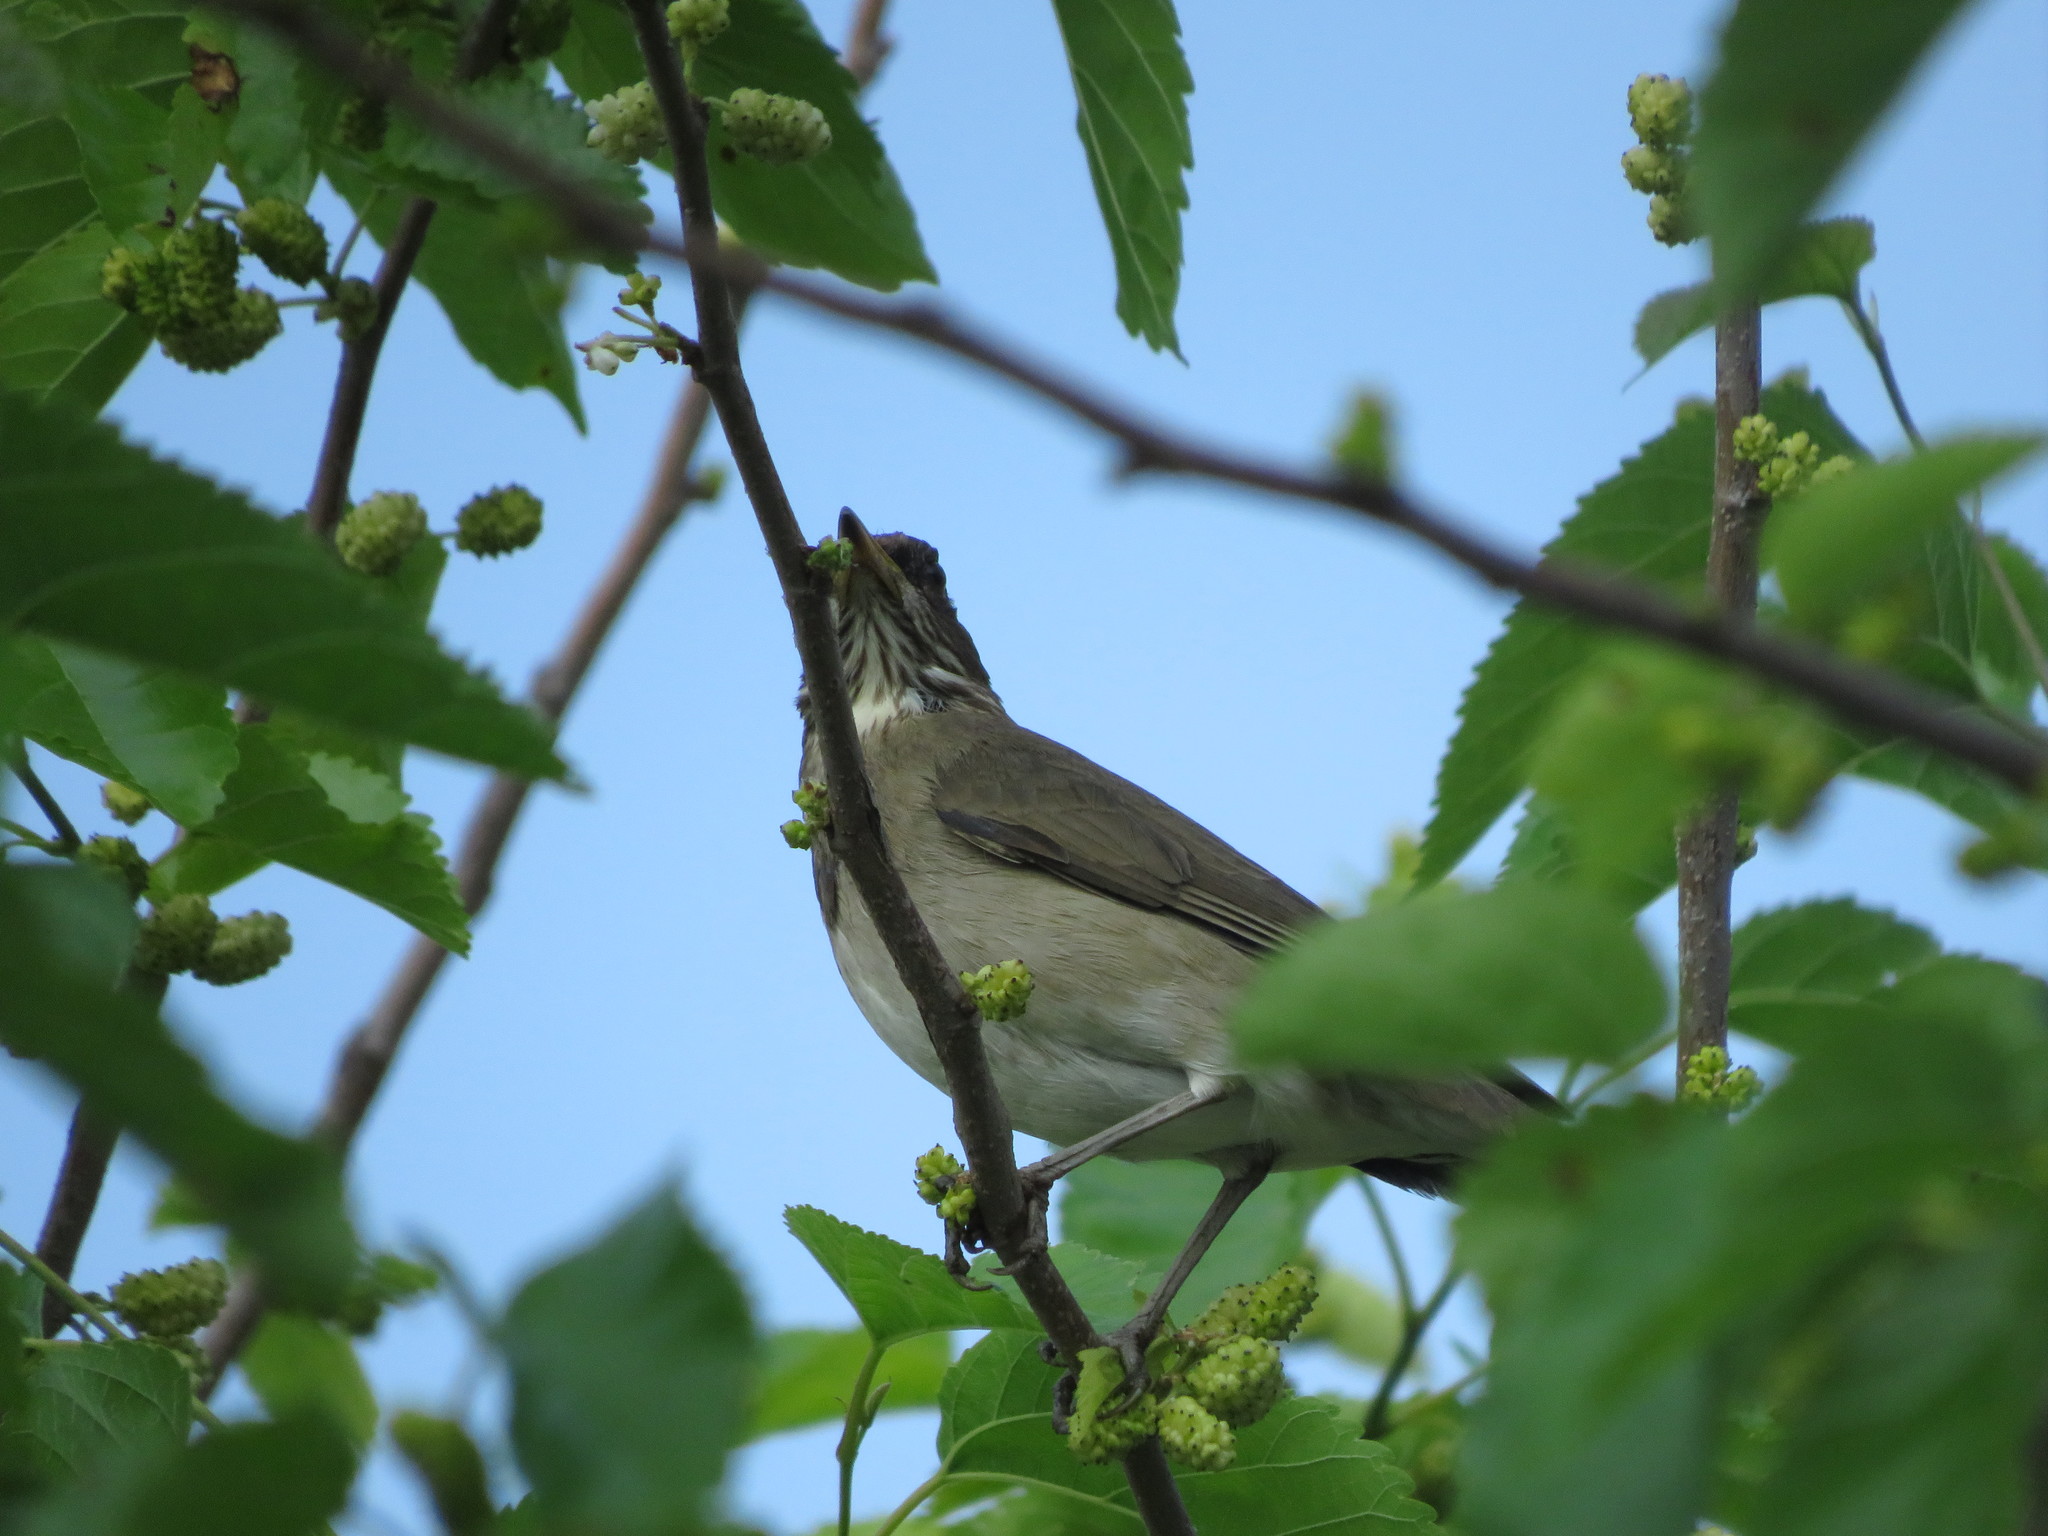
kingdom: Animalia
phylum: Chordata
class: Aves
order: Passeriformes
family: Turdidae
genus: Turdus
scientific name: Turdus amaurochalinus
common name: Creamy-bellied thrush
